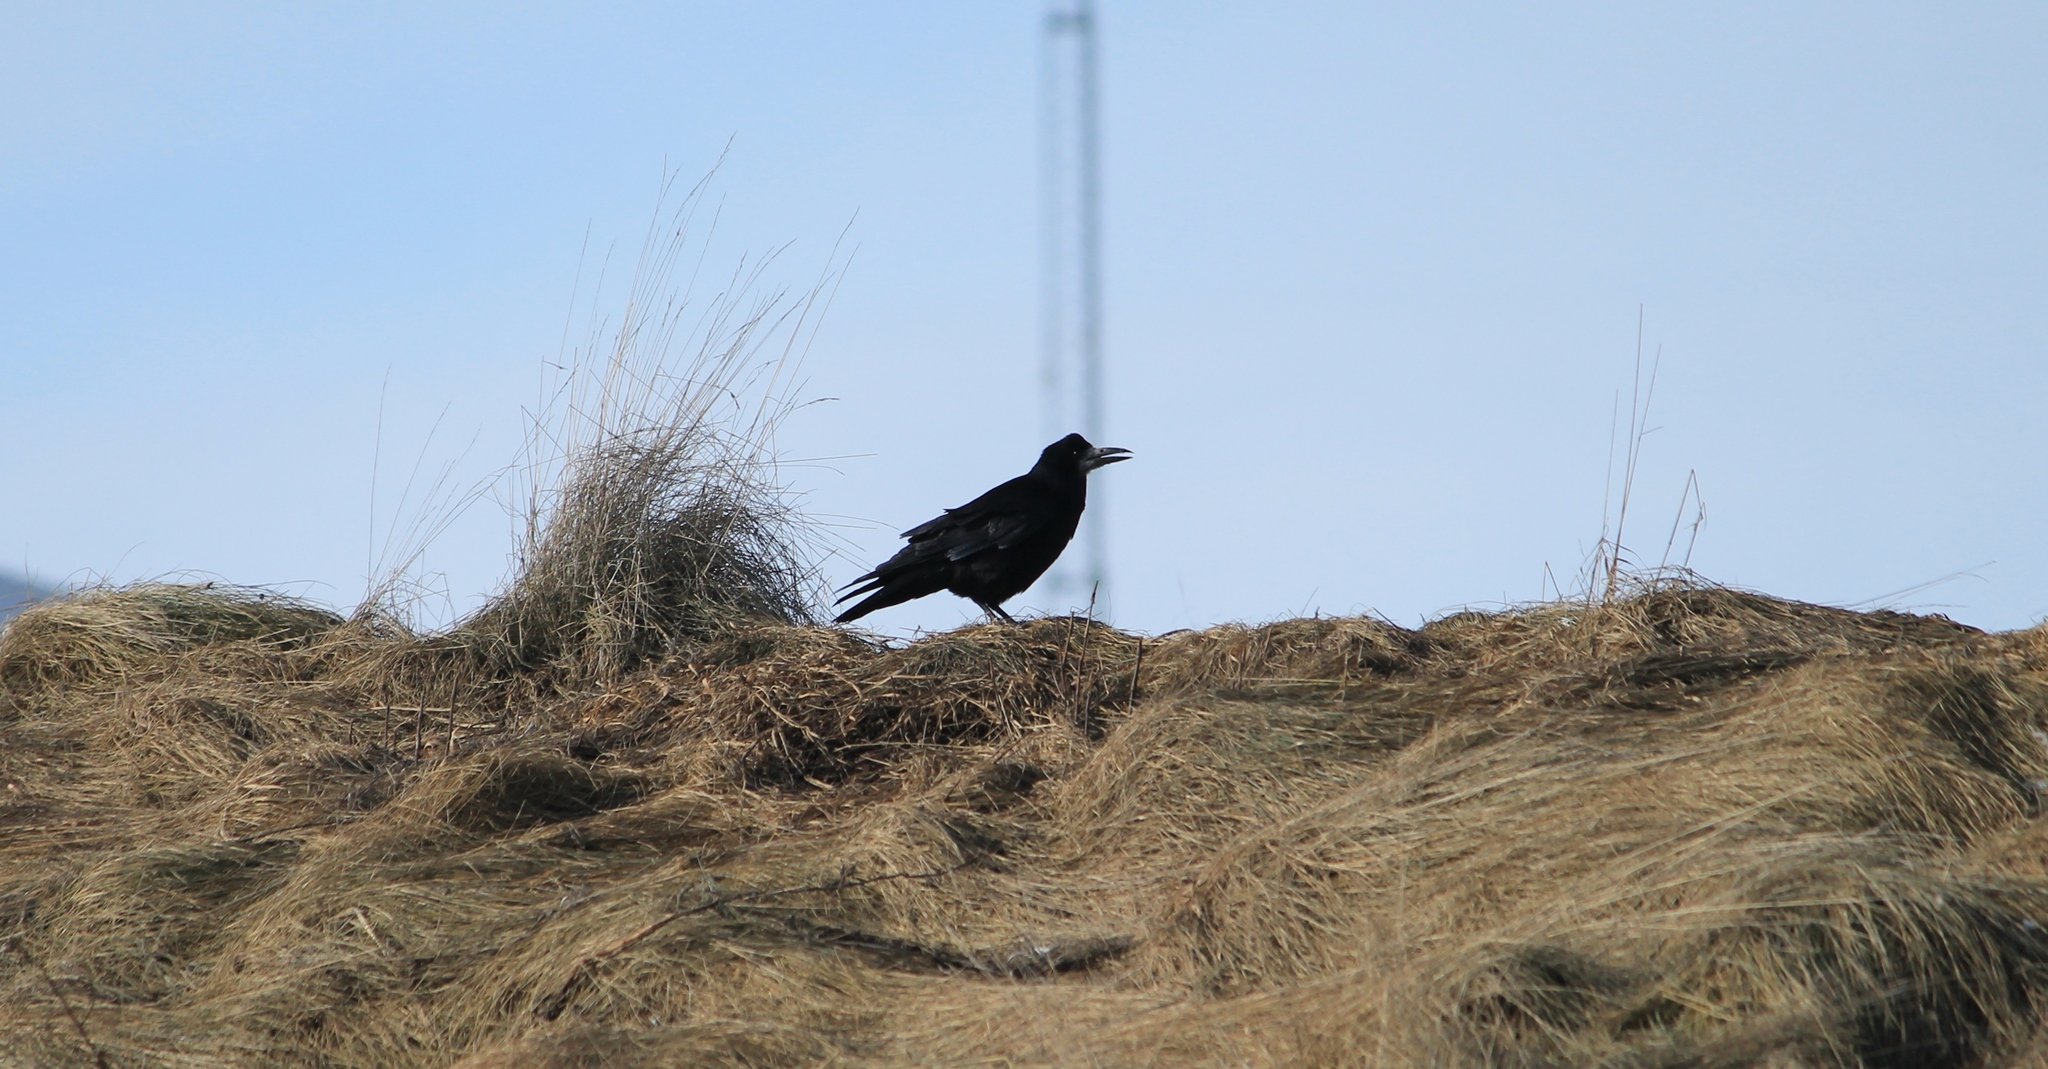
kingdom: Animalia
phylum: Chordata
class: Aves
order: Passeriformes
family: Corvidae
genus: Corvus
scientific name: Corvus frugilegus
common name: Rook
